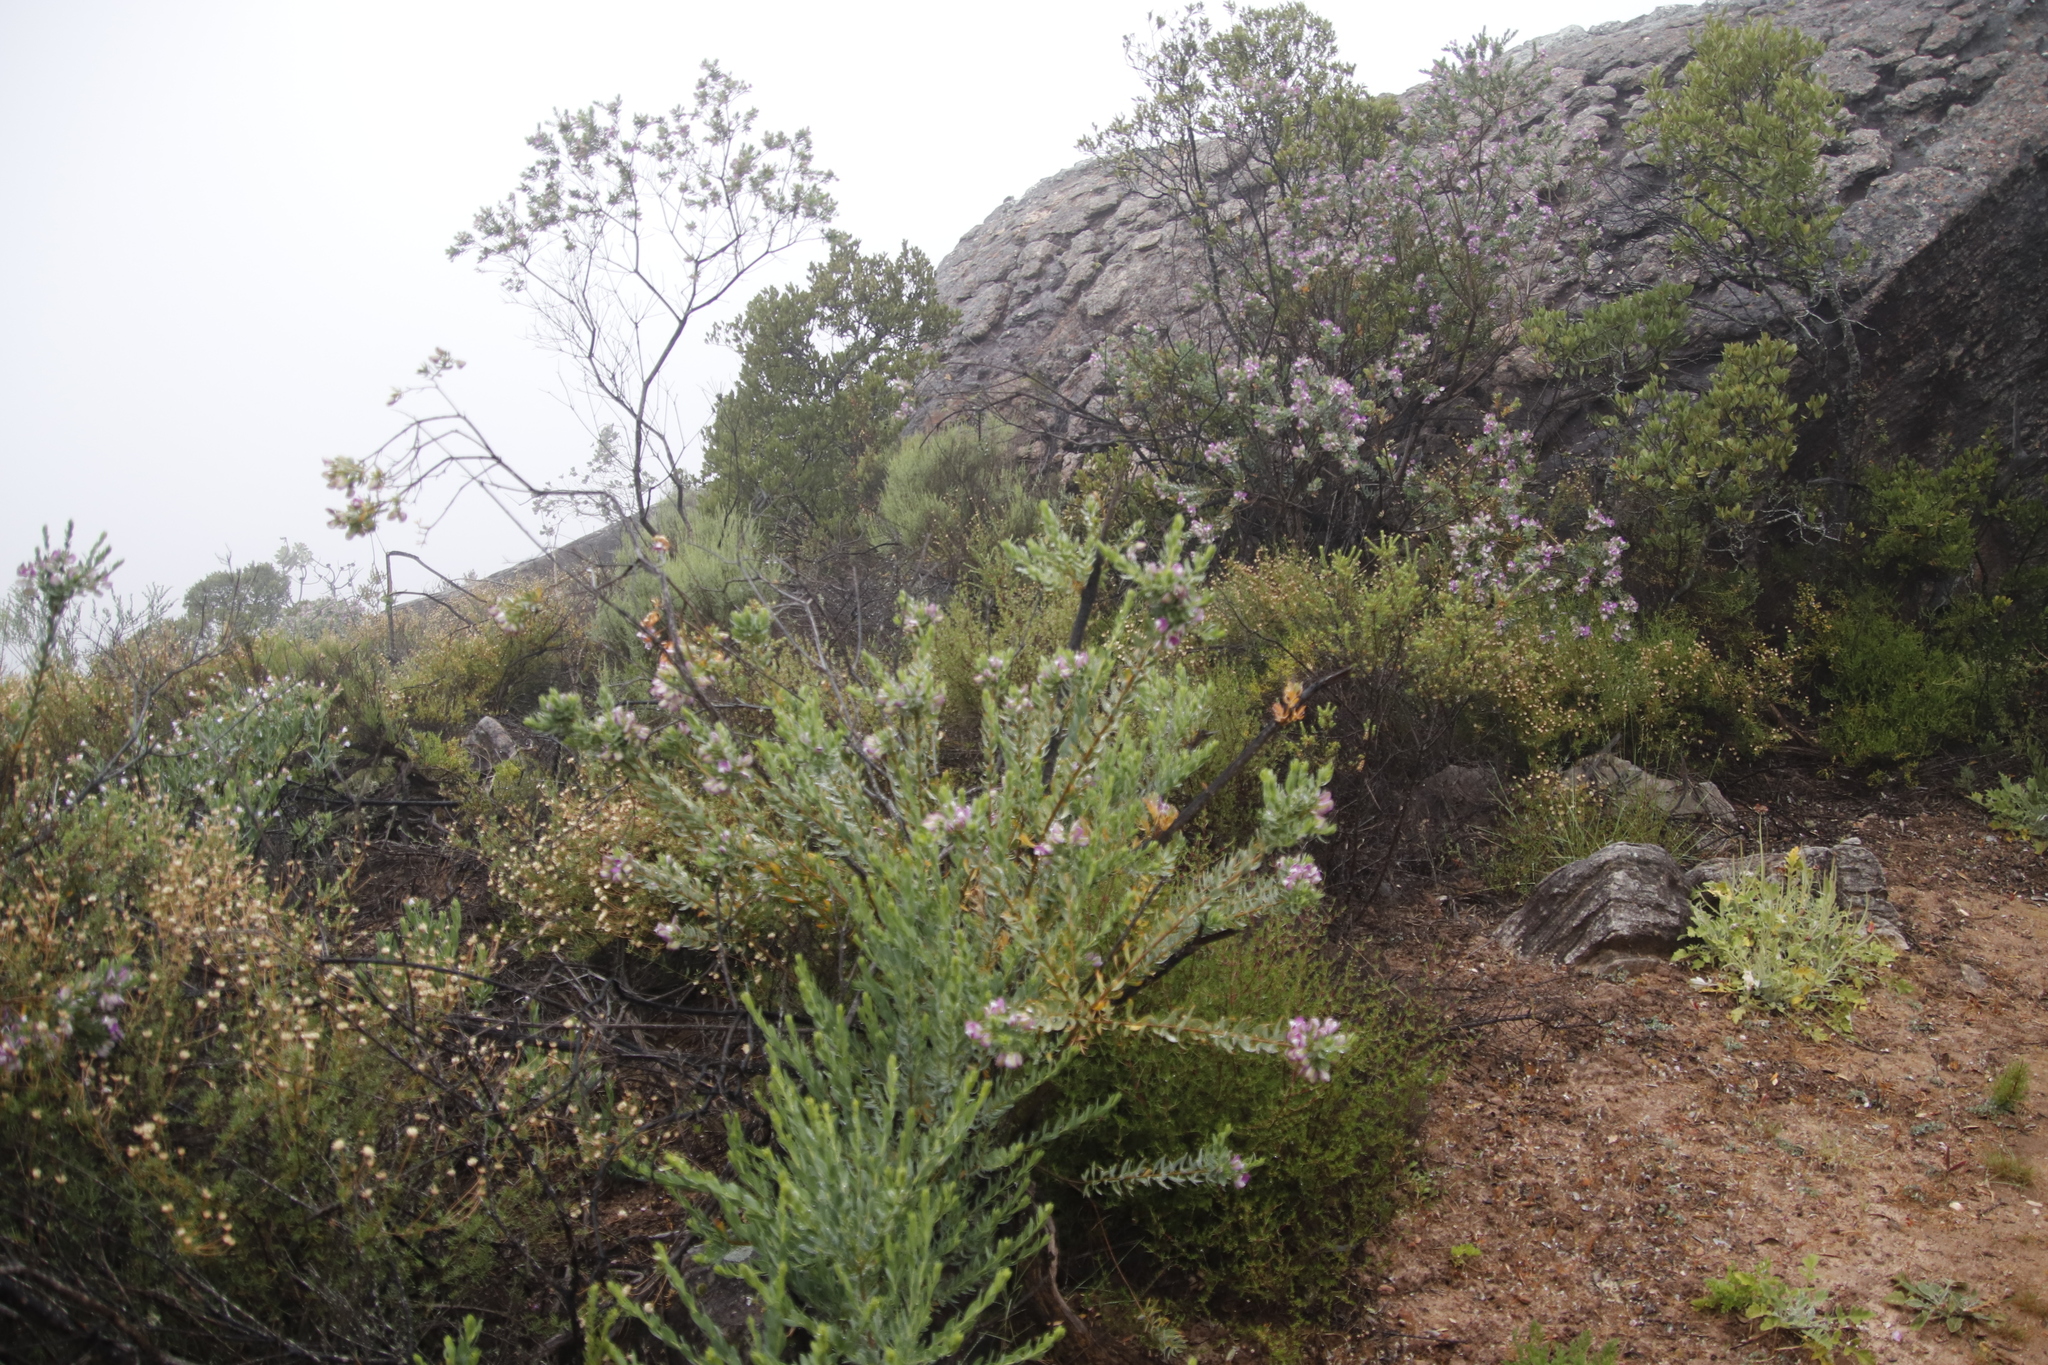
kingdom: Plantae
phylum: Tracheophyta
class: Magnoliopsida
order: Fabales
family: Polygalaceae
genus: Polygala
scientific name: Polygala myrtifolia
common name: Myrtle-leaf milkwort
